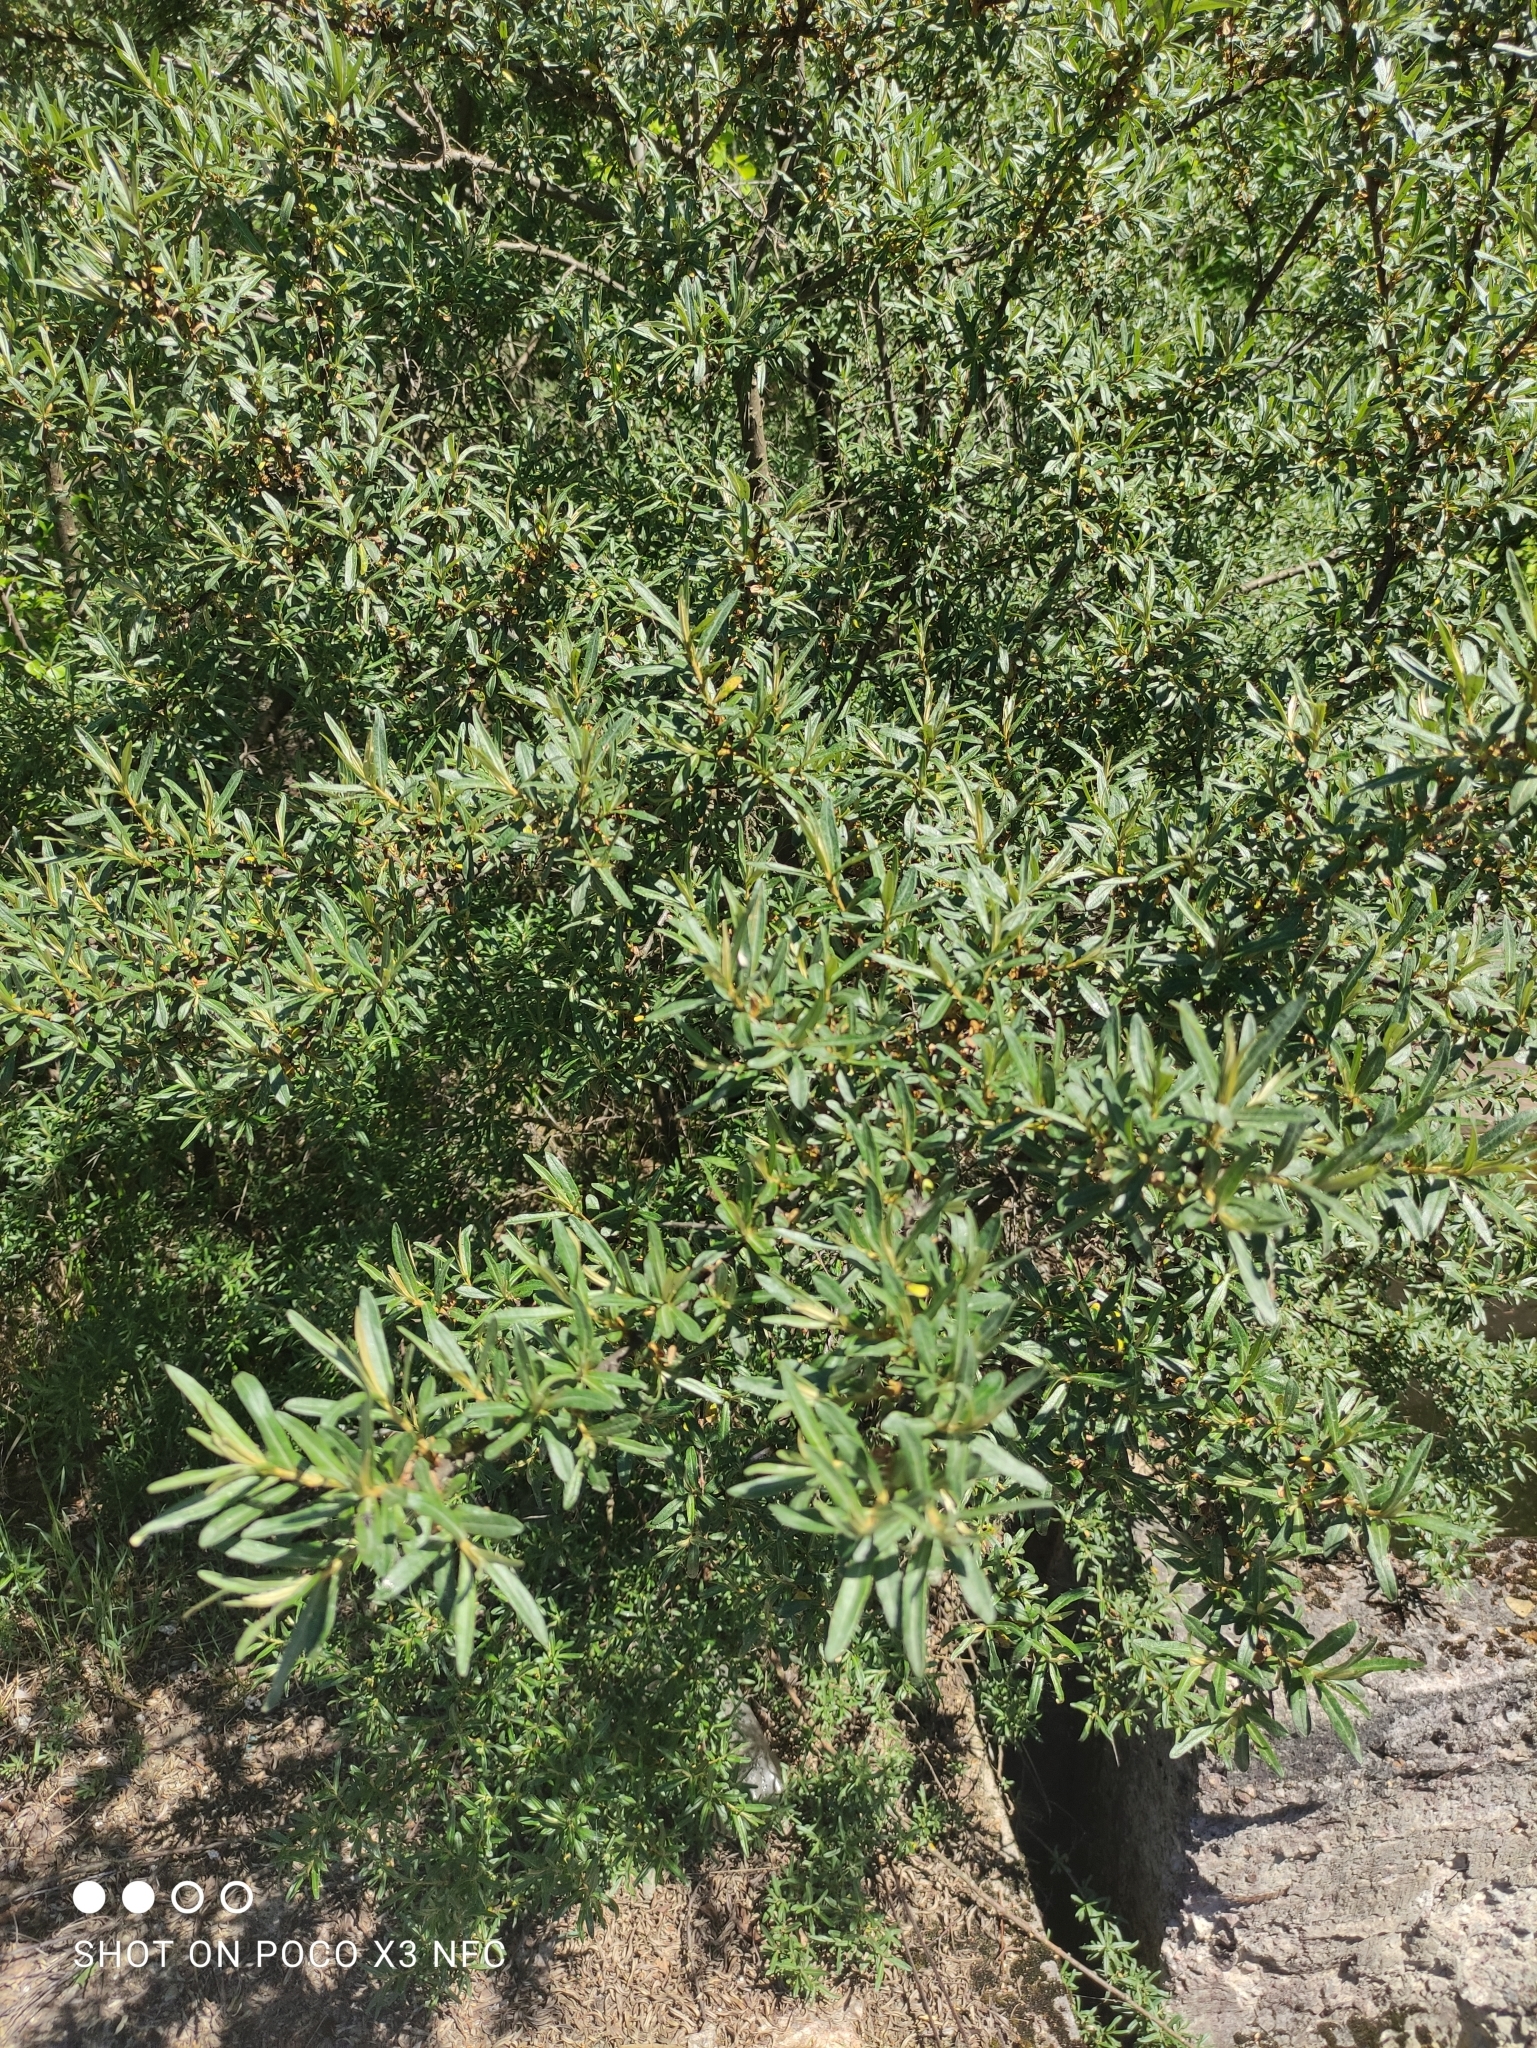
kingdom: Plantae
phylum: Tracheophyta
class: Magnoliopsida
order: Rosales
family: Elaeagnaceae
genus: Hippophae
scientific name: Hippophae rhamnoides
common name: Sea-buckthorn
